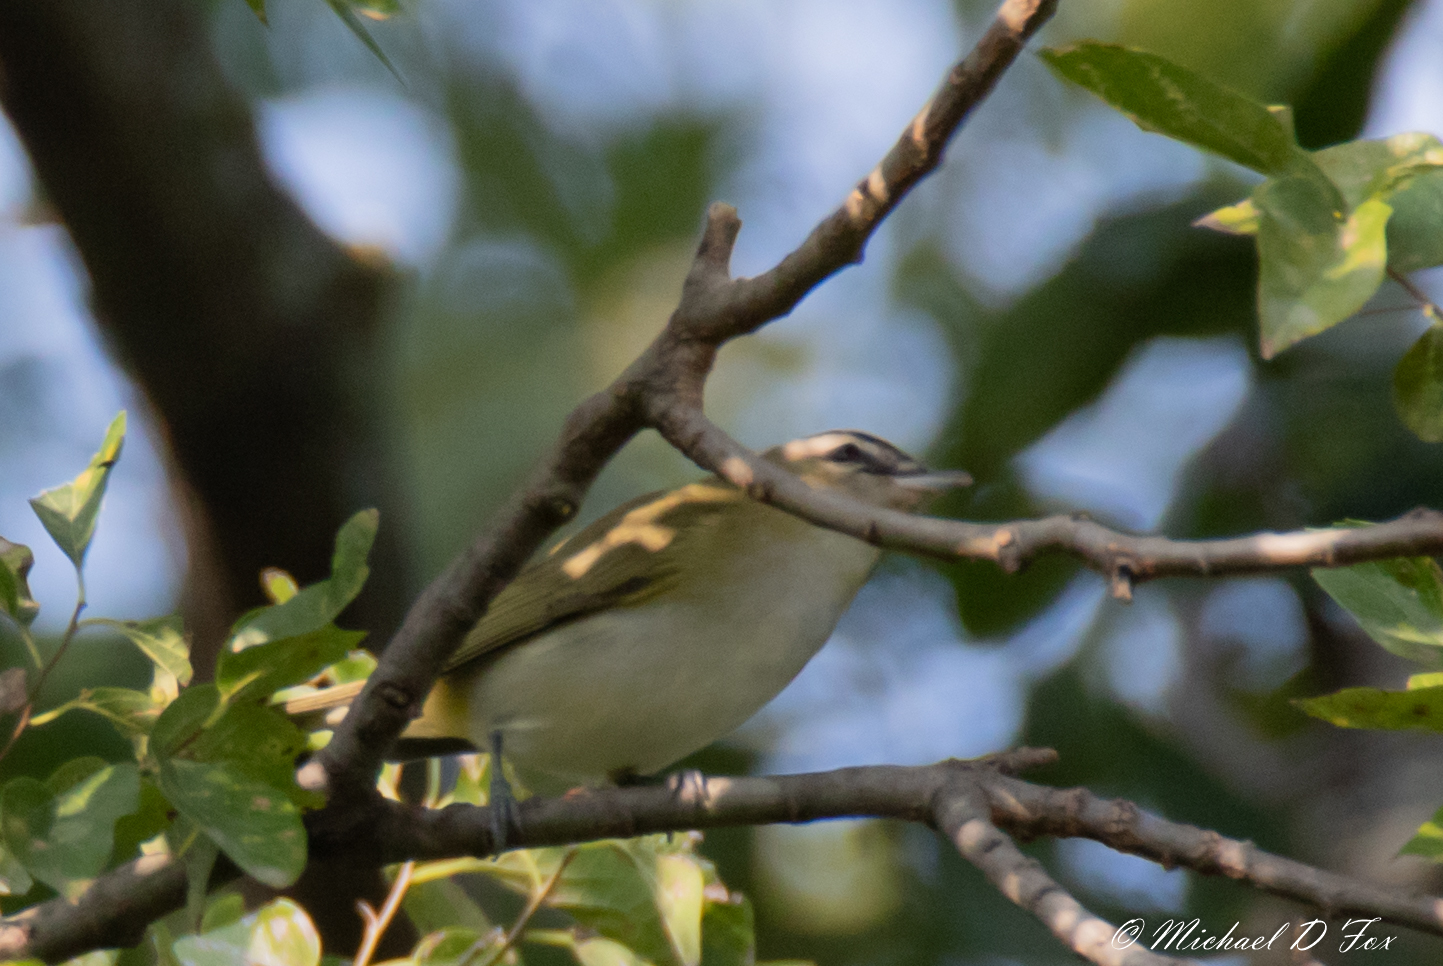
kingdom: Animalia
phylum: Chordata
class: Aves
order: Passeriformes
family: Vireonidae
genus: Vireo
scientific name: Vireo olivaceus
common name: Red-eyed vireo
